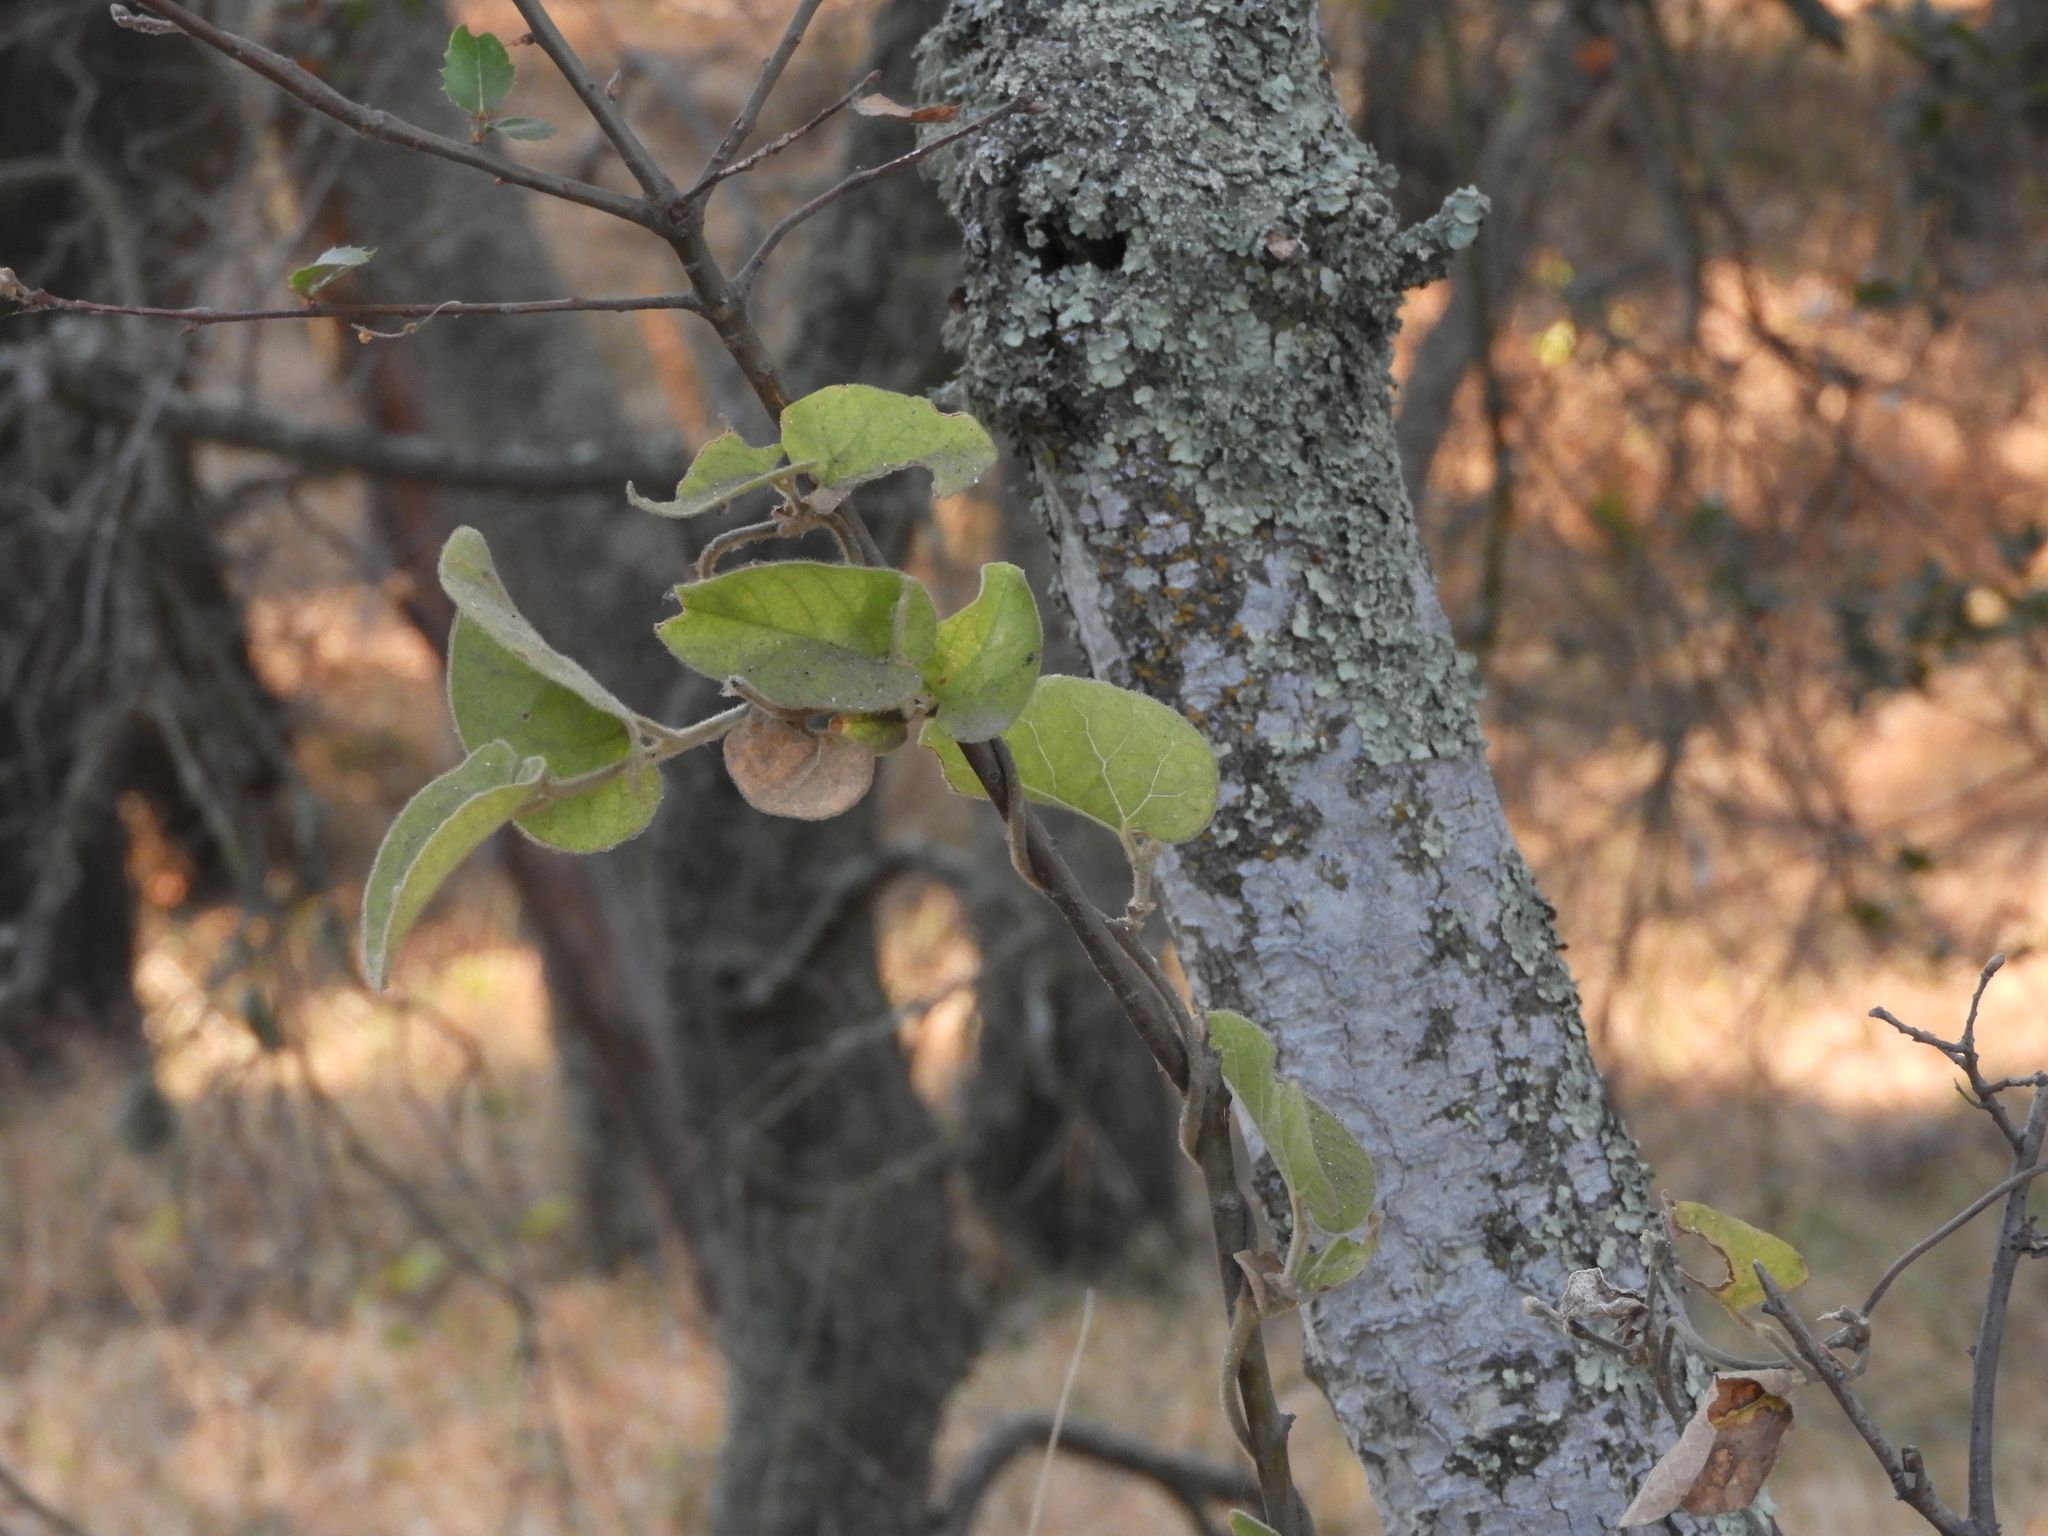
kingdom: Plantae
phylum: Tracheophyta
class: Magnoliopsida
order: Piperales
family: Aristolochiaceae
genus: Isotrema
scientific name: Isotrema californicum
